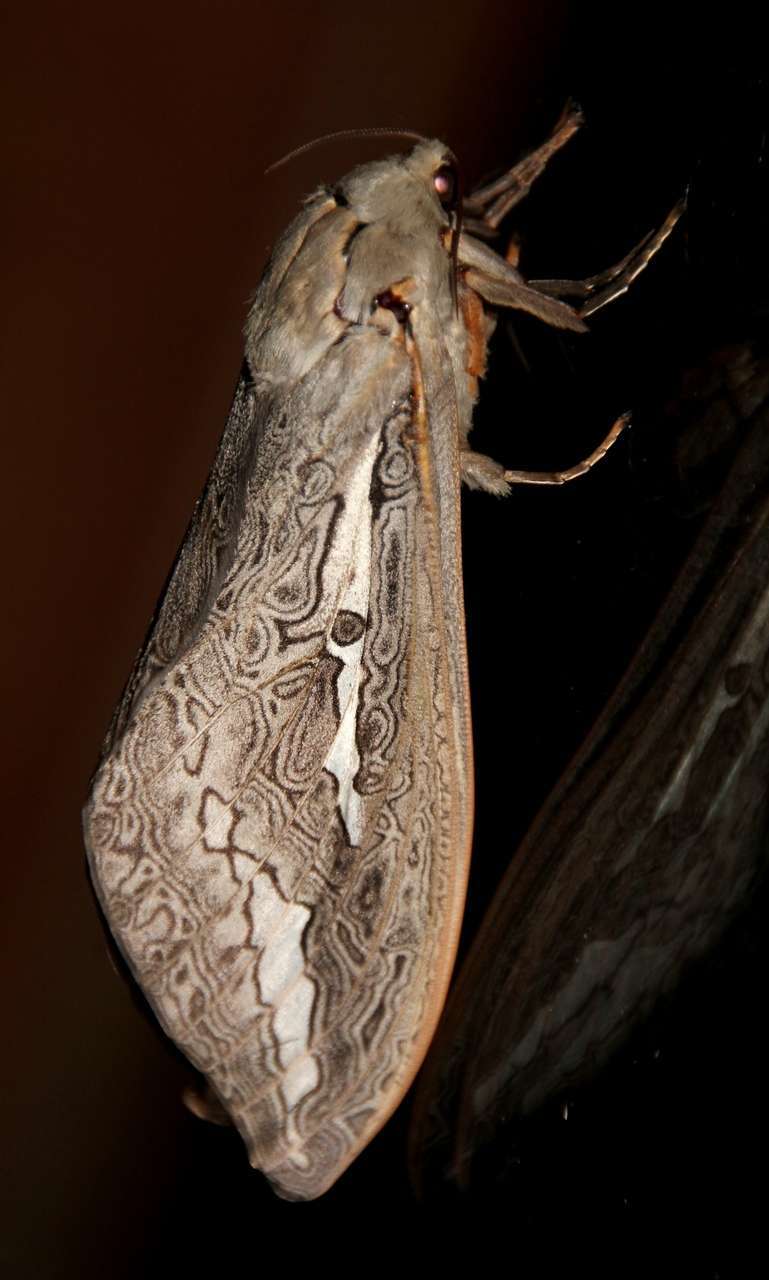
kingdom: Animalia
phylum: Arthropoda
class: Insecta
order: Lepidoptera
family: Hepialidae
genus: Abantiades
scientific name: Abantiades labyrinthicus
